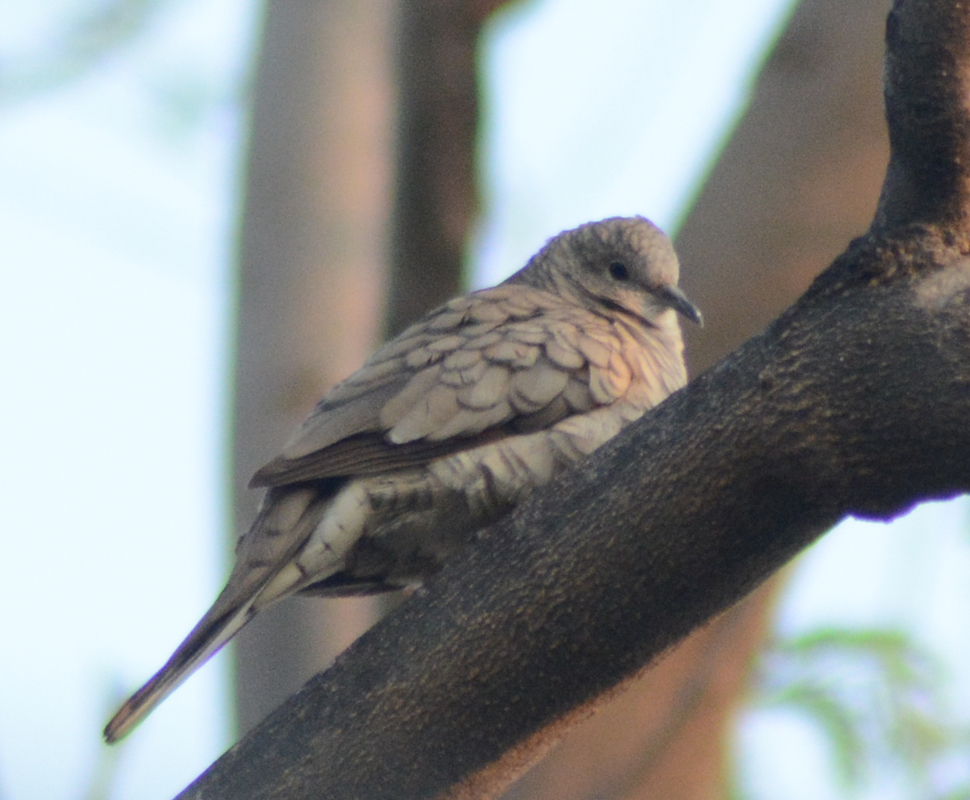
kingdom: Animalia
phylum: Chordata
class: Aves
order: Columbiformes
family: Columbidae
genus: Columbina
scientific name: Columbina inca
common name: Inca dove
